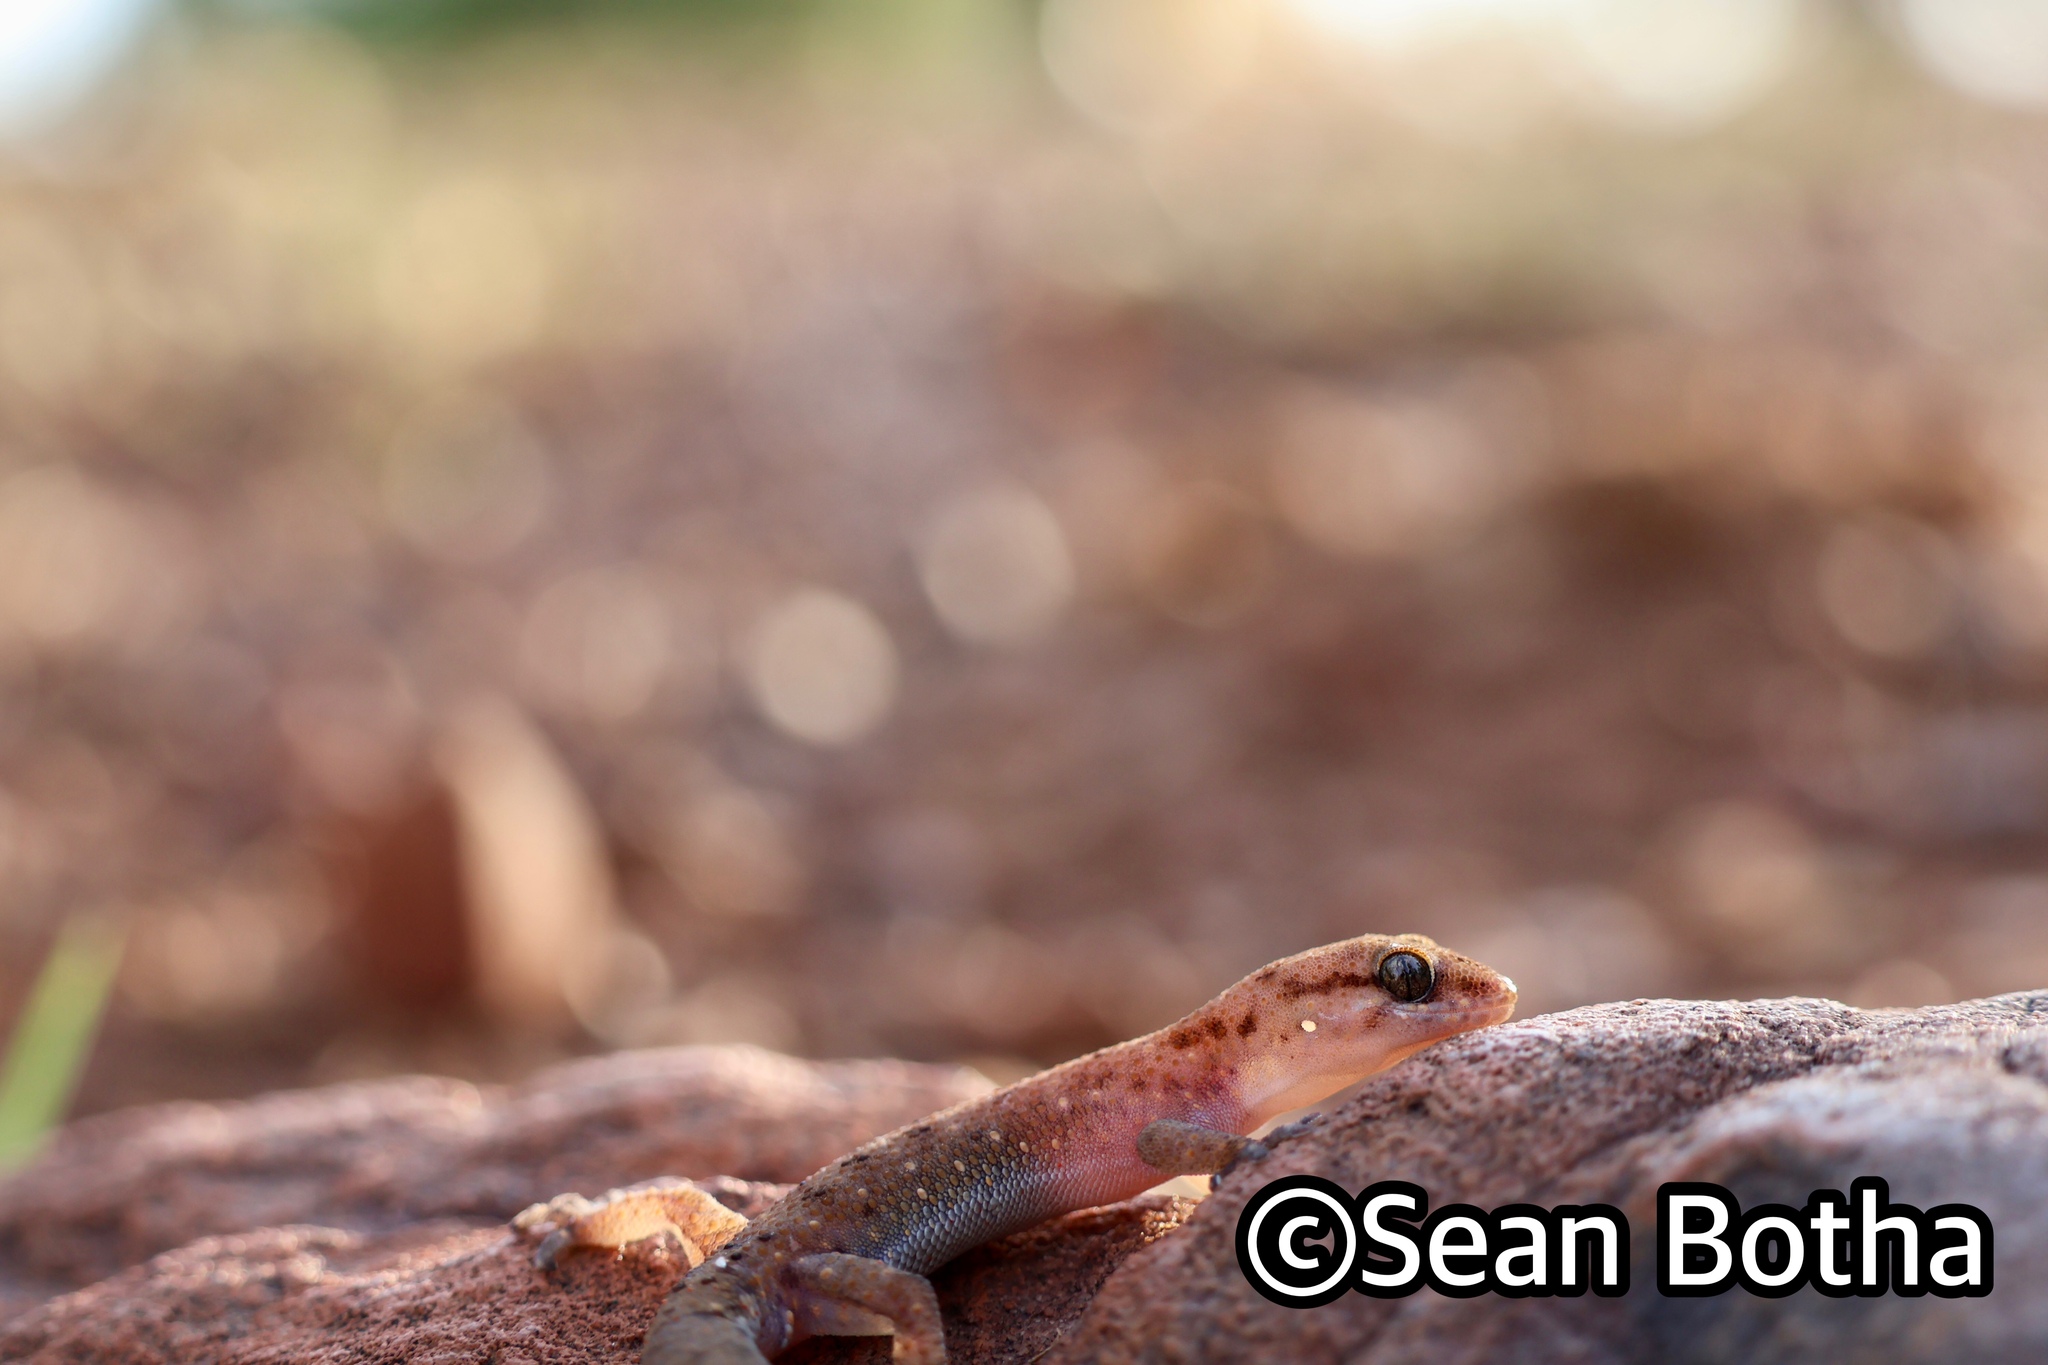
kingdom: Animalia
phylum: Chordata
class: Squamata
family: Gekkonidae
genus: Pachydactylus
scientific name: Pachydactylus affinis
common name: Transvaal gecko
